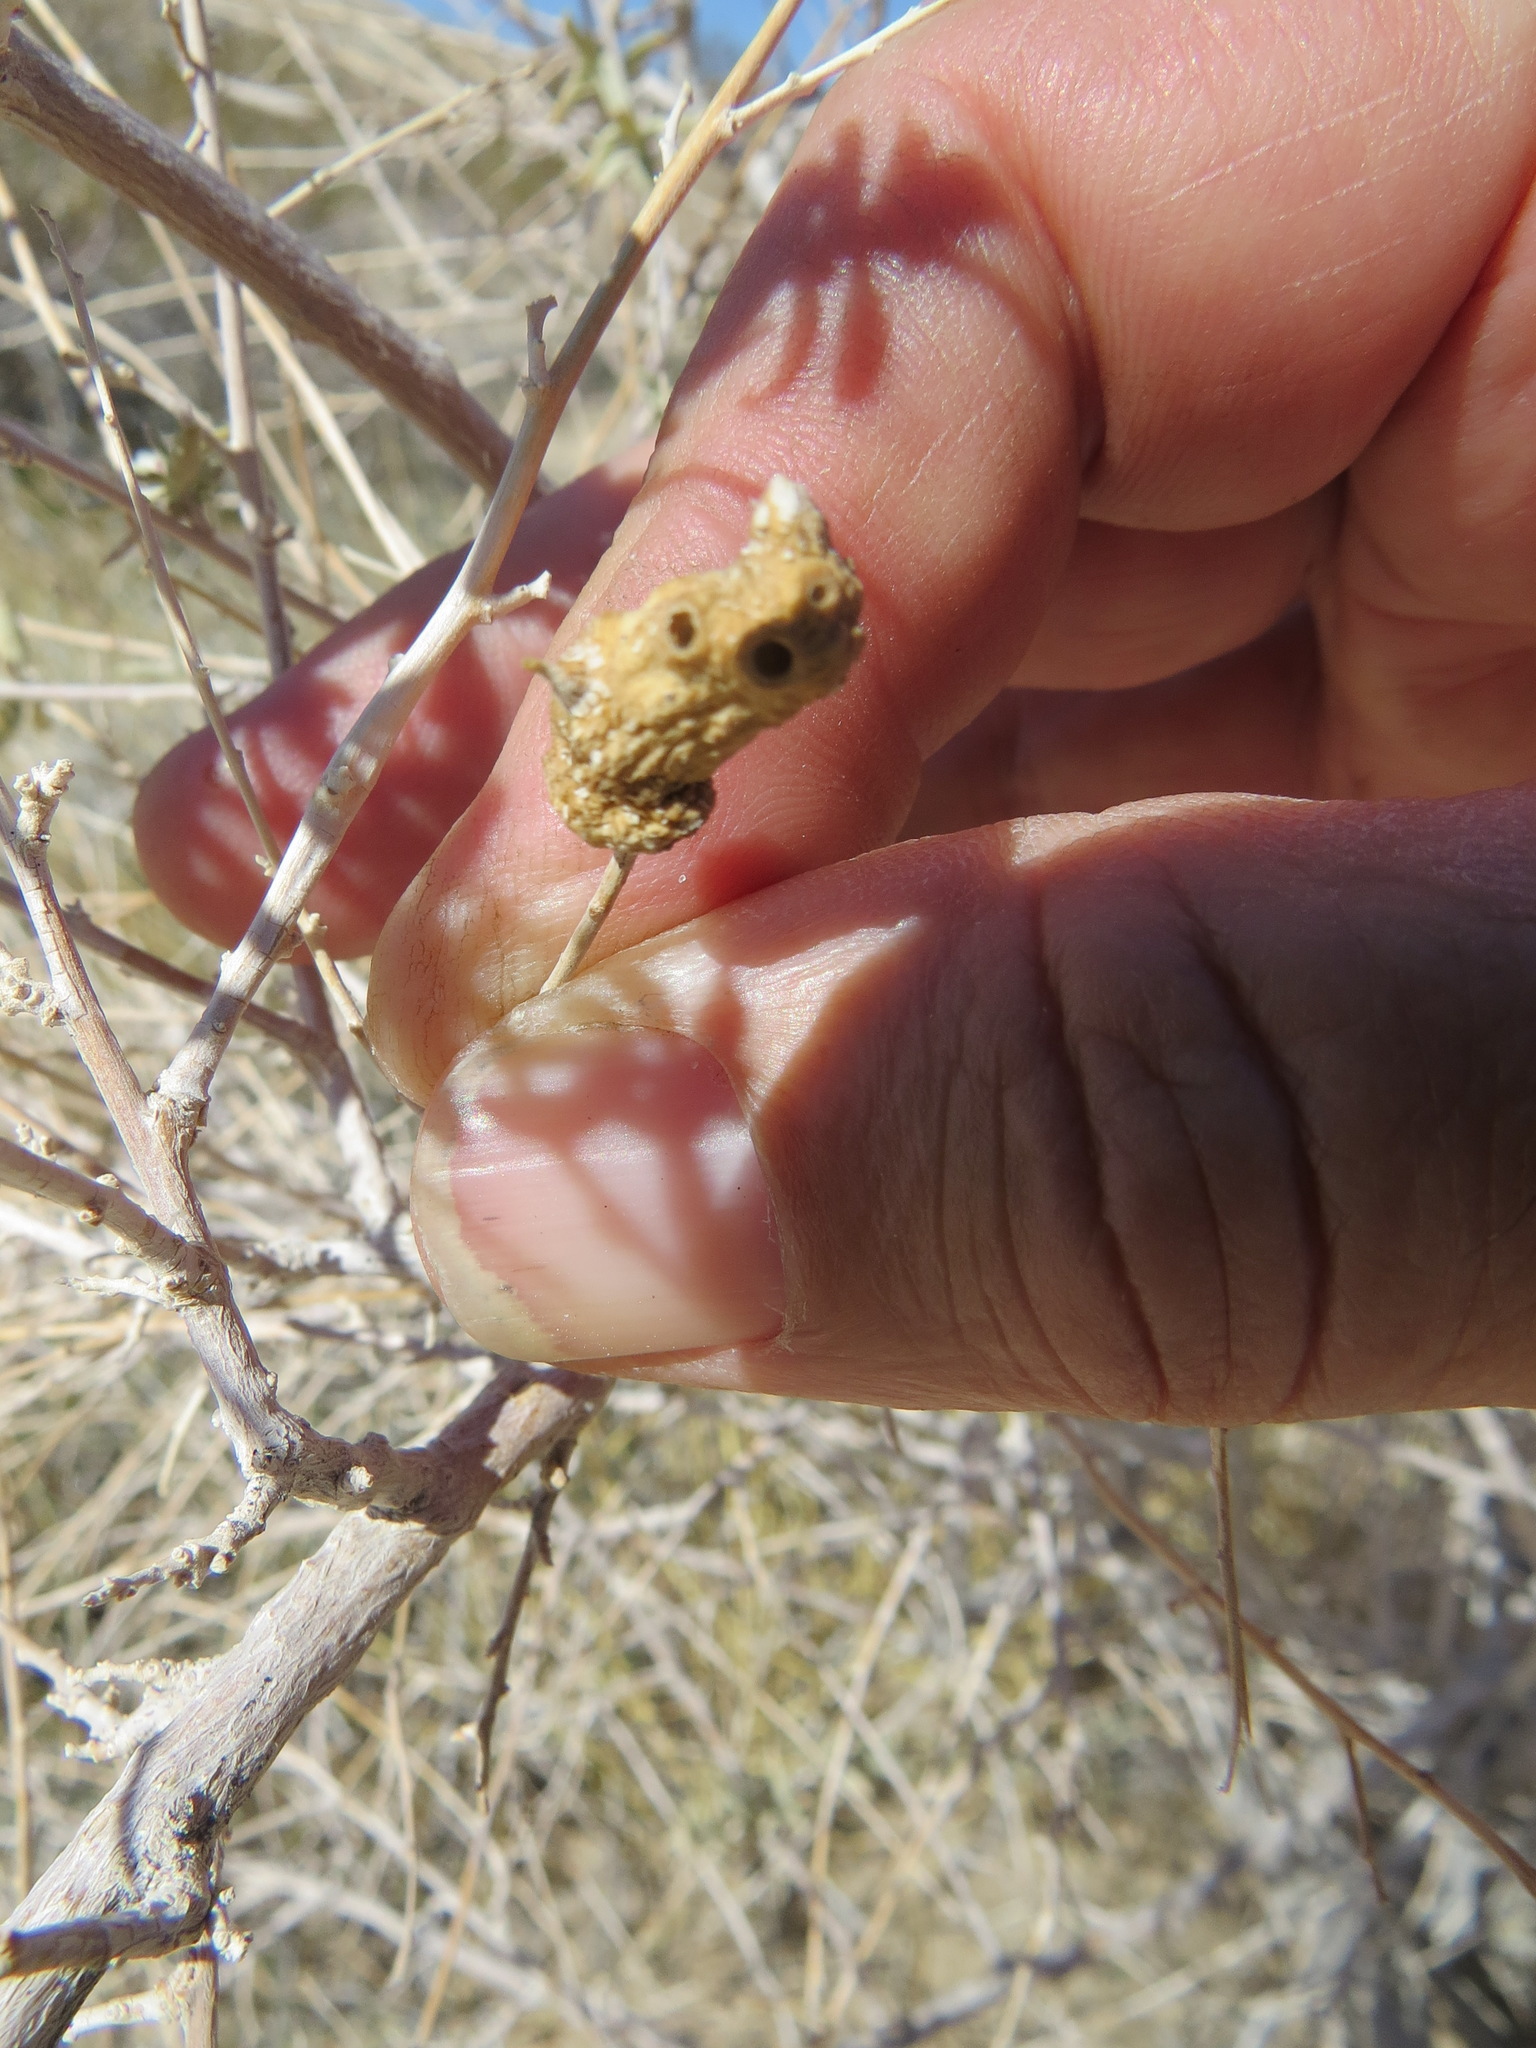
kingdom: Animalia
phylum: Arthropoda
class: Insecta
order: Diptera
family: Cecidomyiidae
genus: Asphondylia
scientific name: Asphondylia atriplicis
